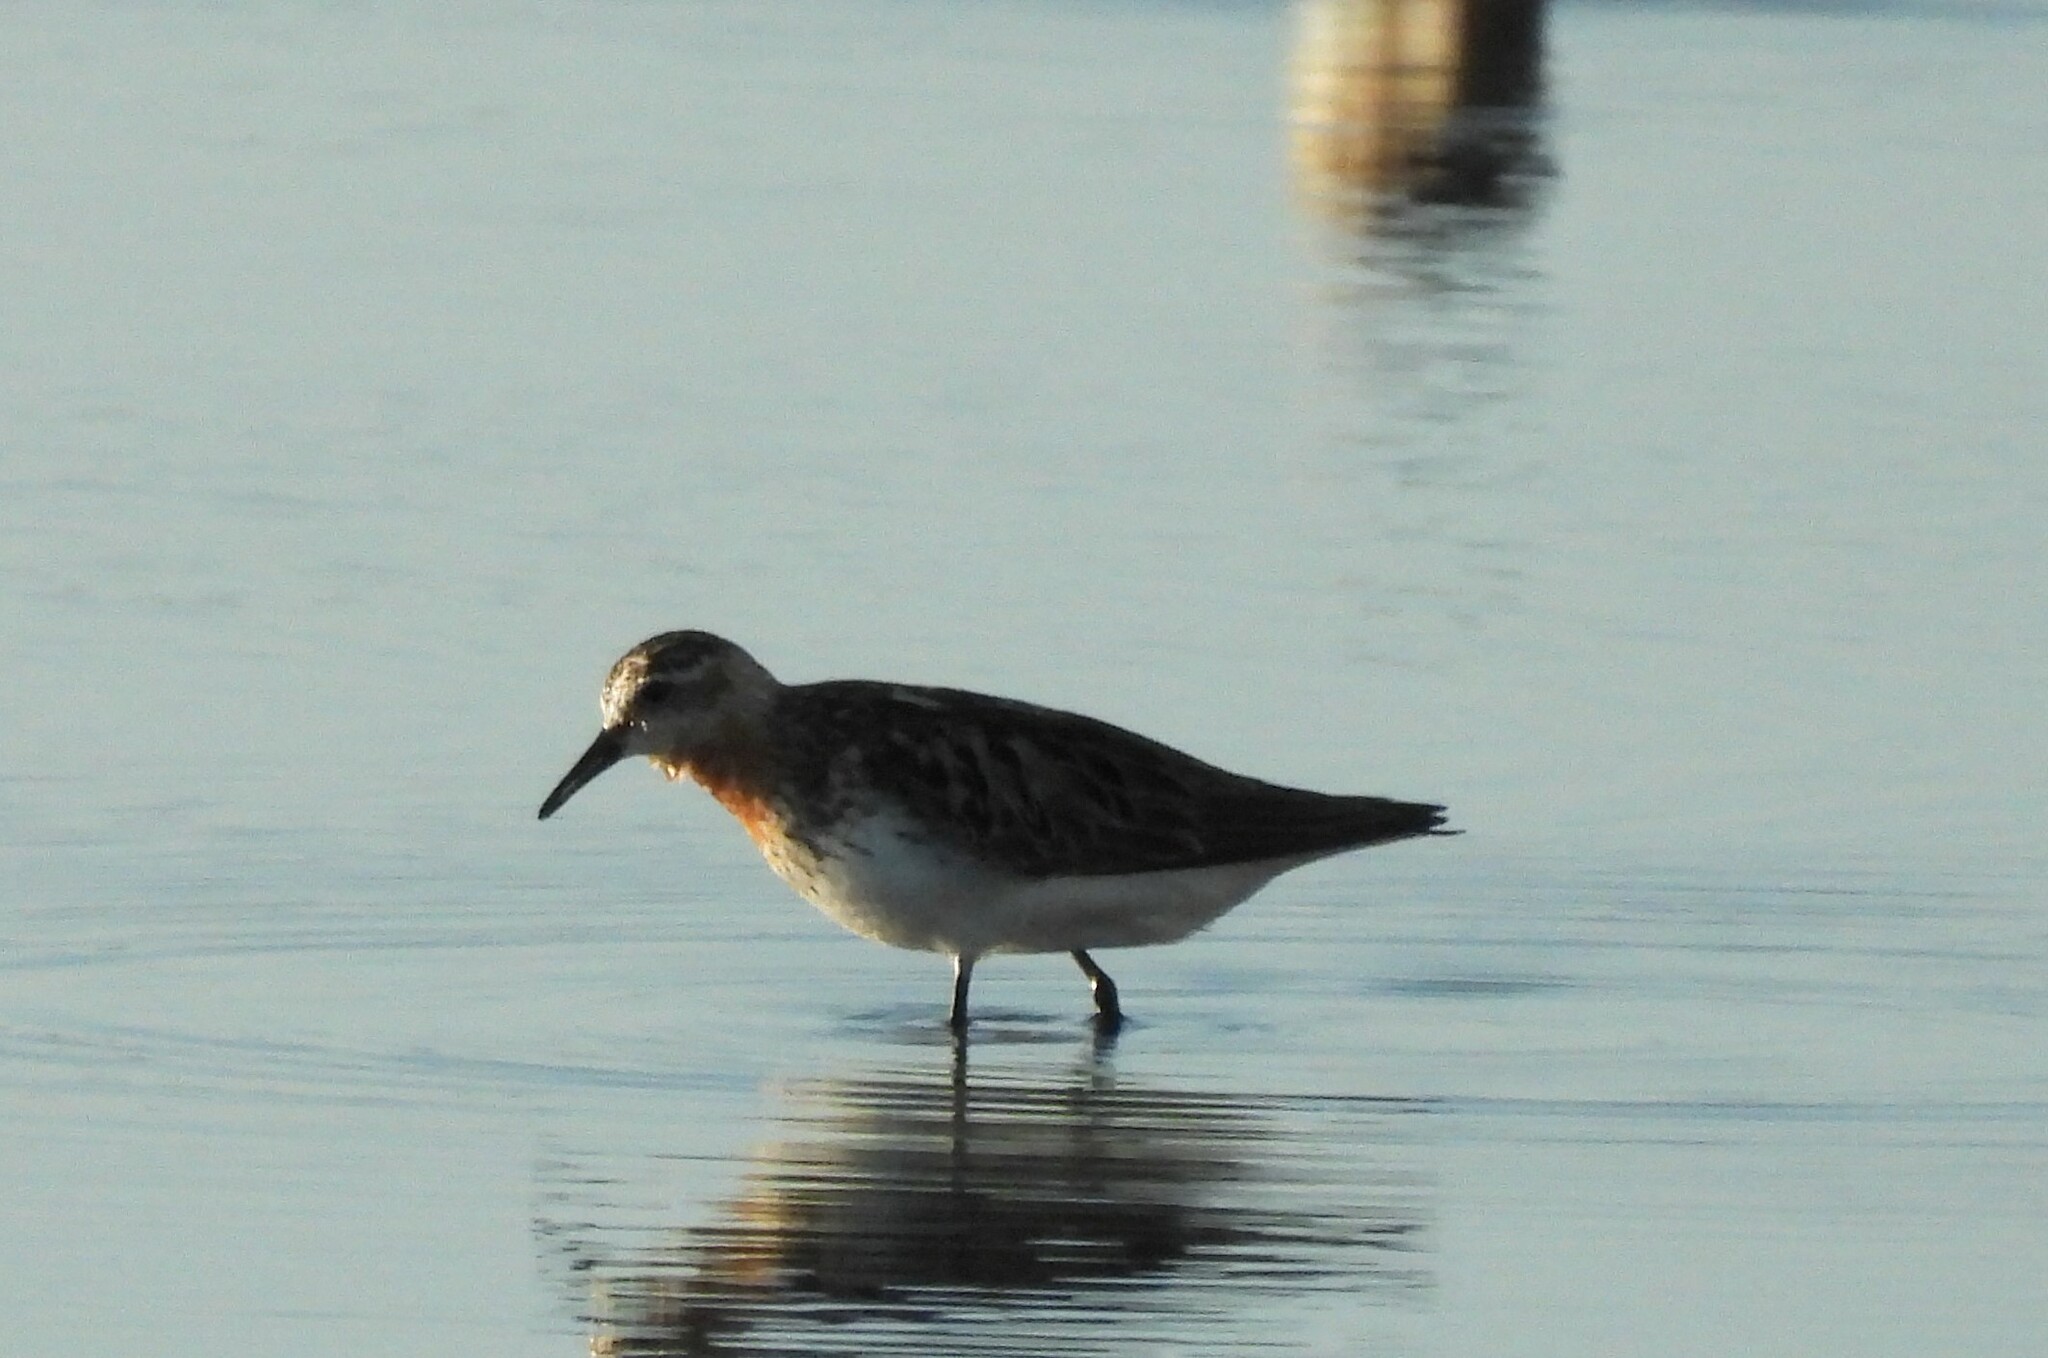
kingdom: Animalia
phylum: Chordata
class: Aves
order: Charadriiformes
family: Scolopacidae
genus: Calidris
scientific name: Calidris ruficollis
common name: Red-necked stint
